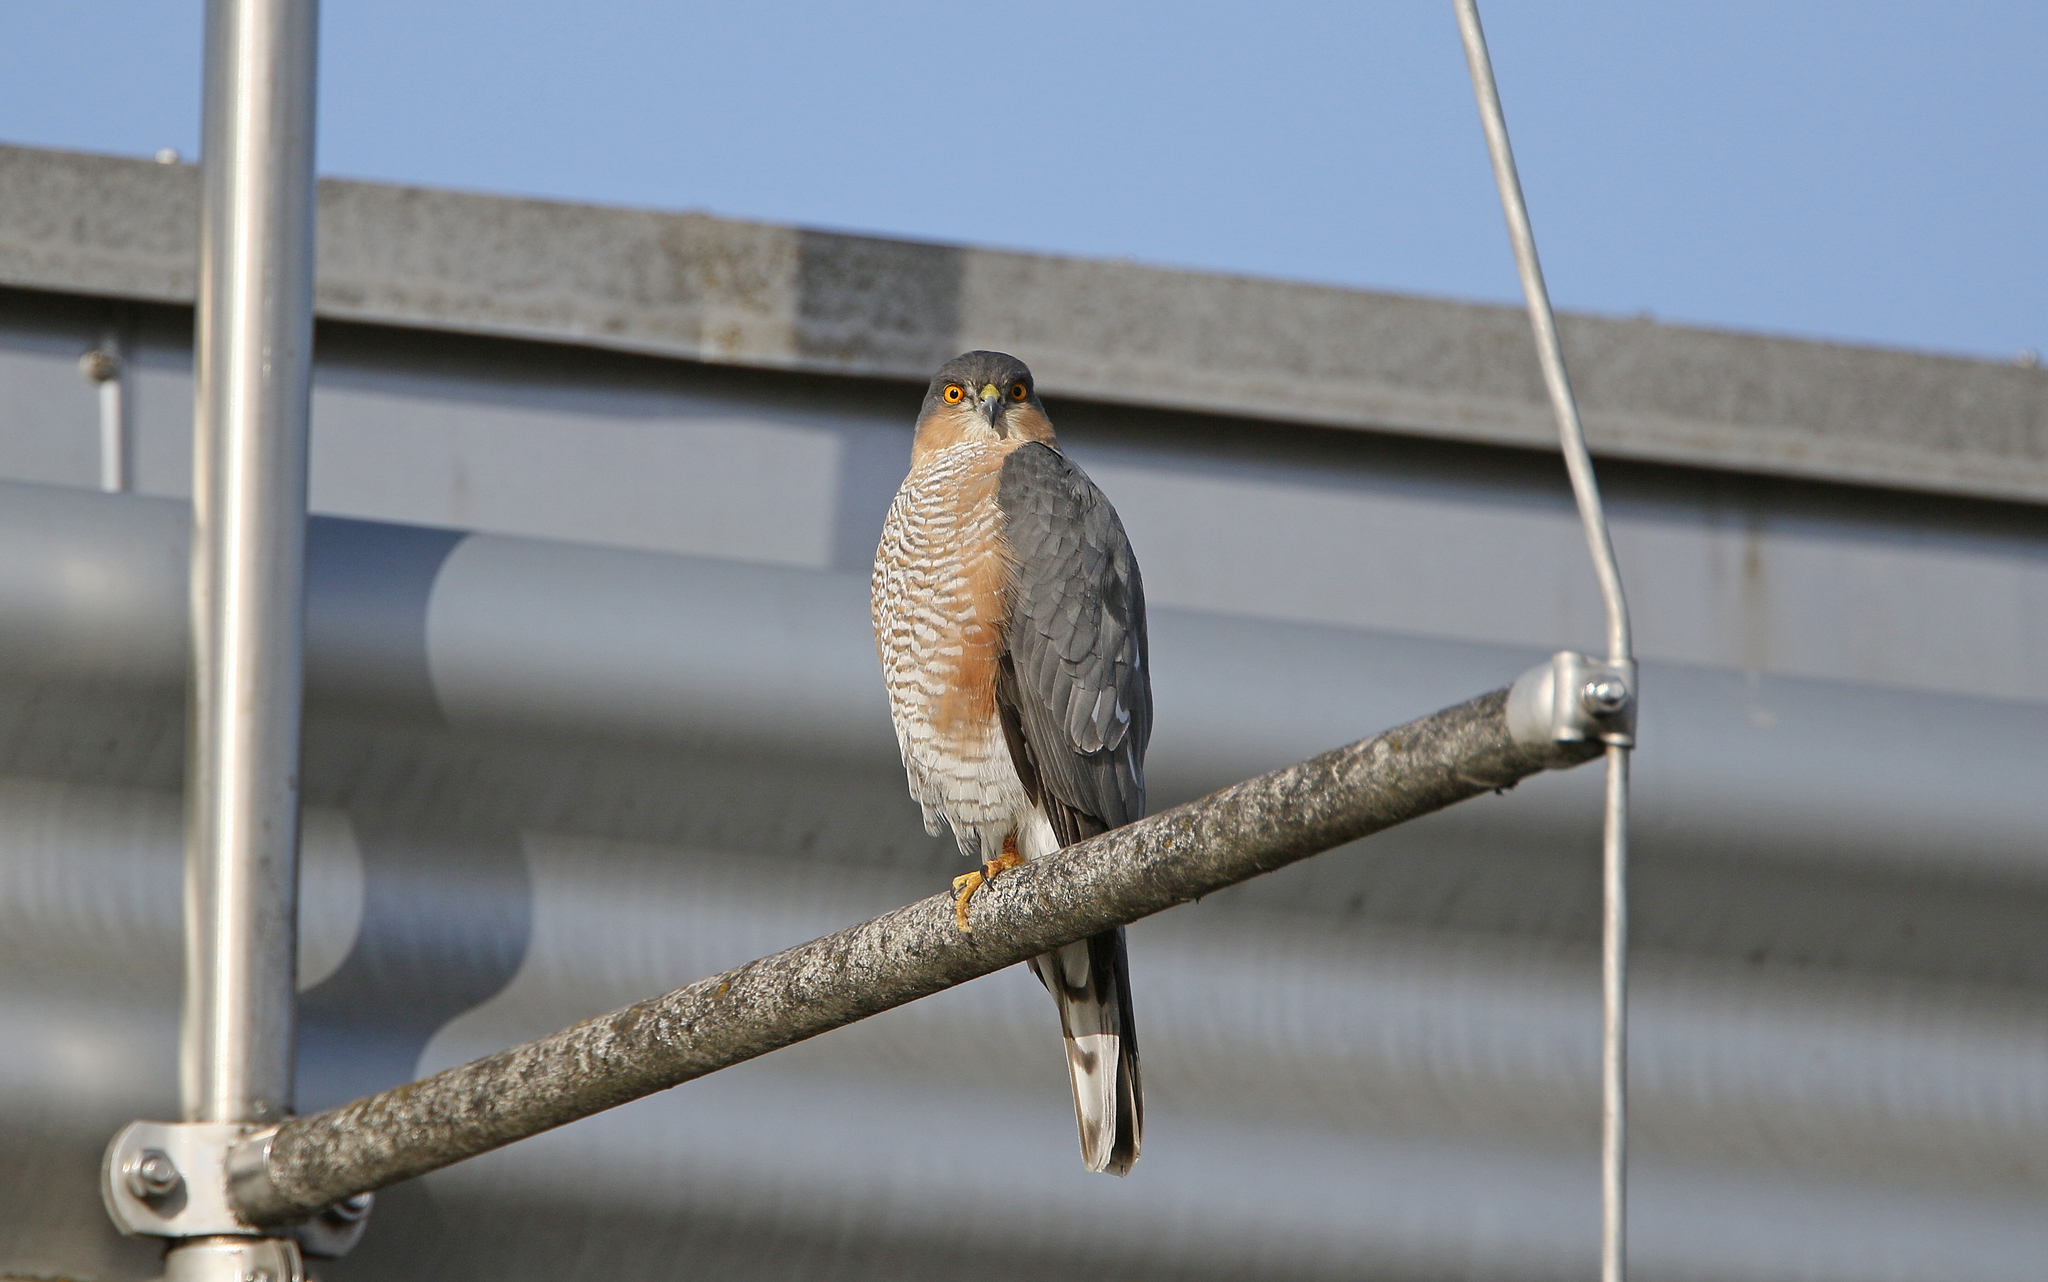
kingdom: Animalia
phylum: Chordata
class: Aves
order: Accipitriformes
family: Accipitridae
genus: Accipiter
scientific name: Accipiter nisus
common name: Eurasian sparrowhawk
